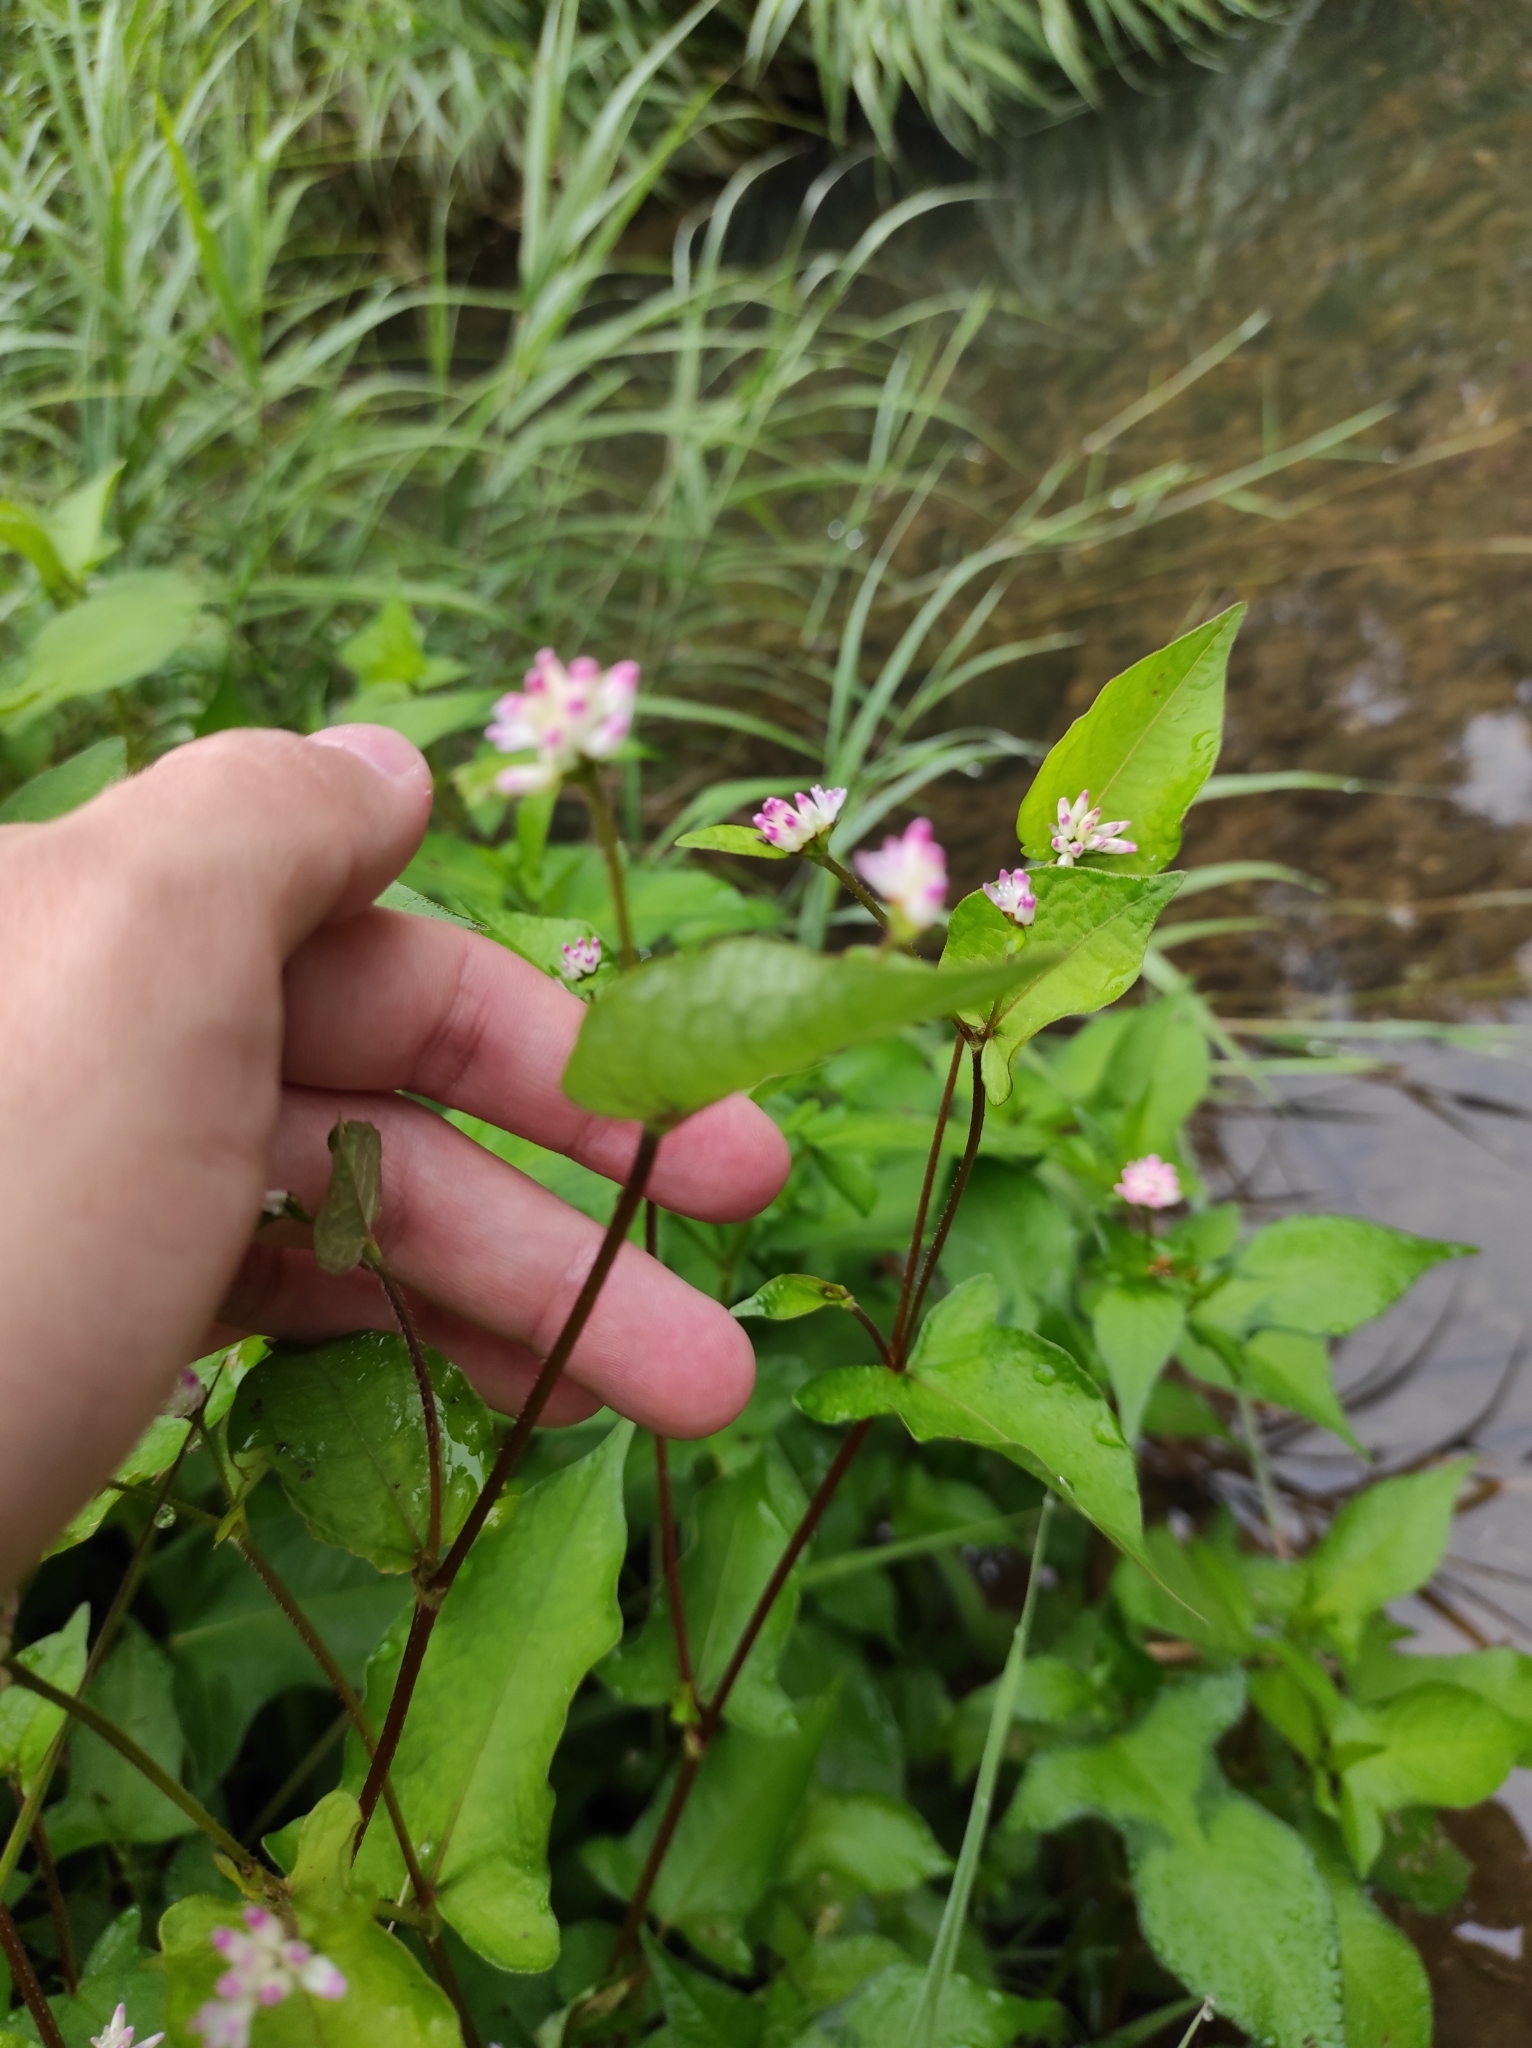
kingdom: Plantae
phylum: Tracheophyta
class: Magnoliopsida
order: Caryophyllales
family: Polygonaceae
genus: Persicaria
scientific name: Persicaria thunbergii
